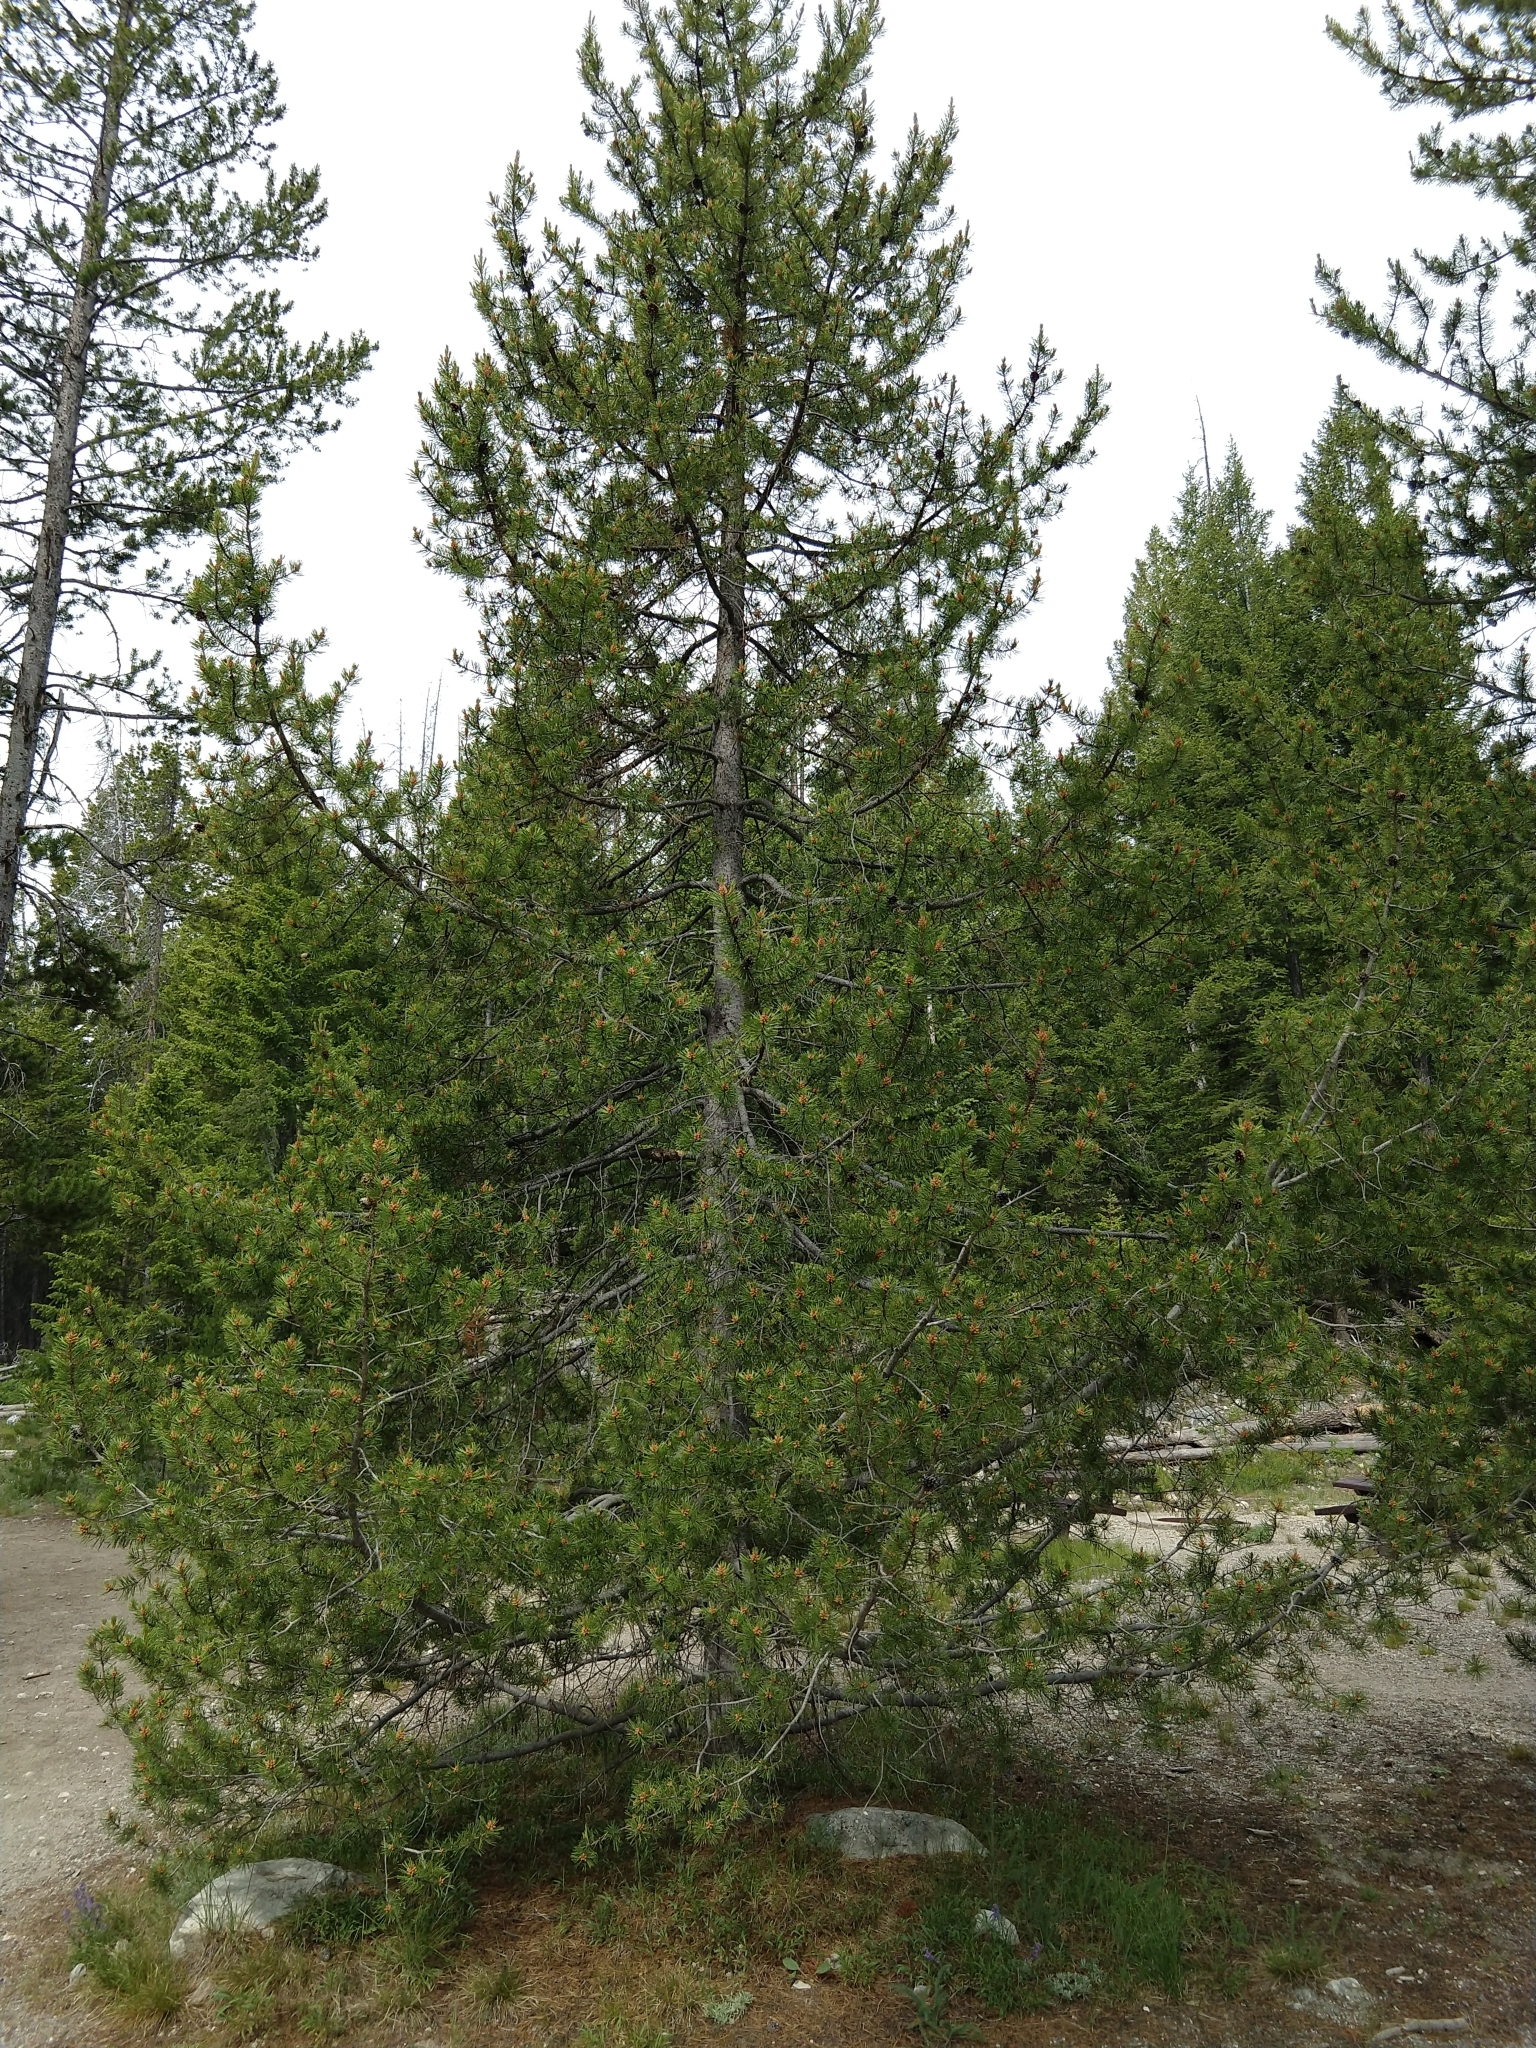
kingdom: Plantae
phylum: Tracheophyta
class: Pinopsida
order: Pinales
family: Pinaceae
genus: Pinus
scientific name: Pinus contorta
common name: Lodgepole pine
